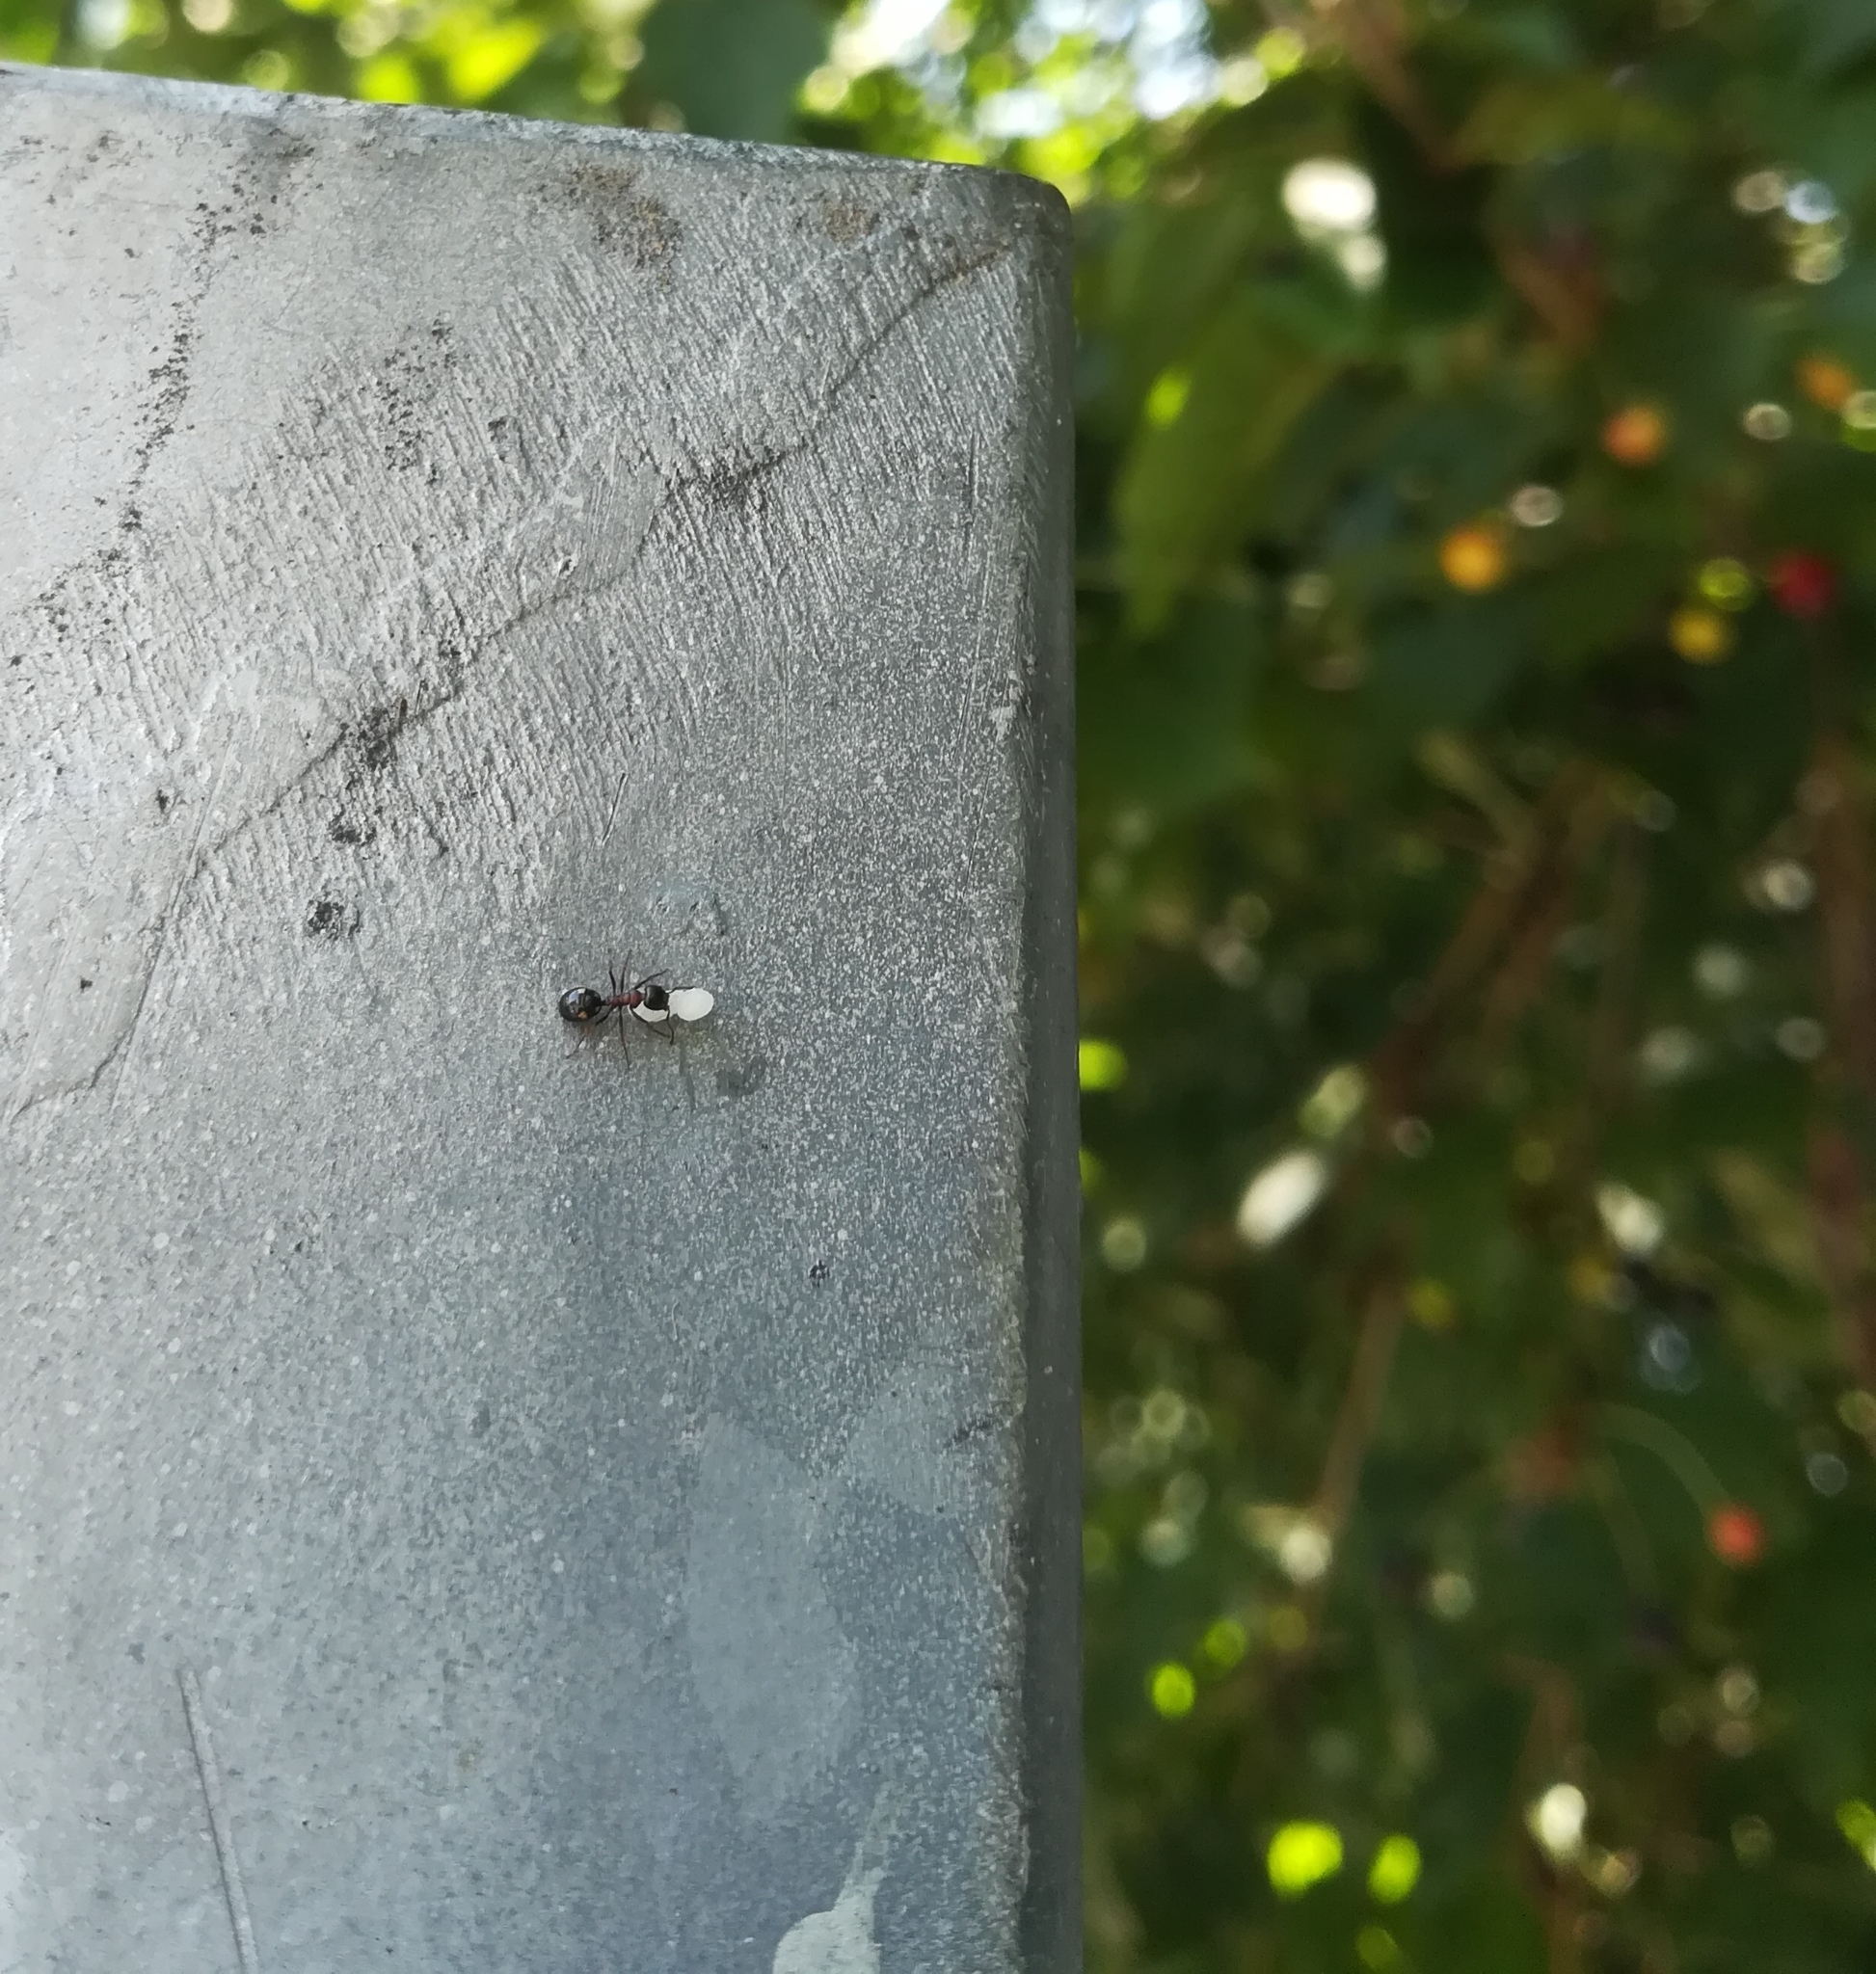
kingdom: Animalia
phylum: Arthropoda
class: Insecta
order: Hymenoptera
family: Formicidae
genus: Dolichoderus
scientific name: Dolichoderus quadripunctatus
